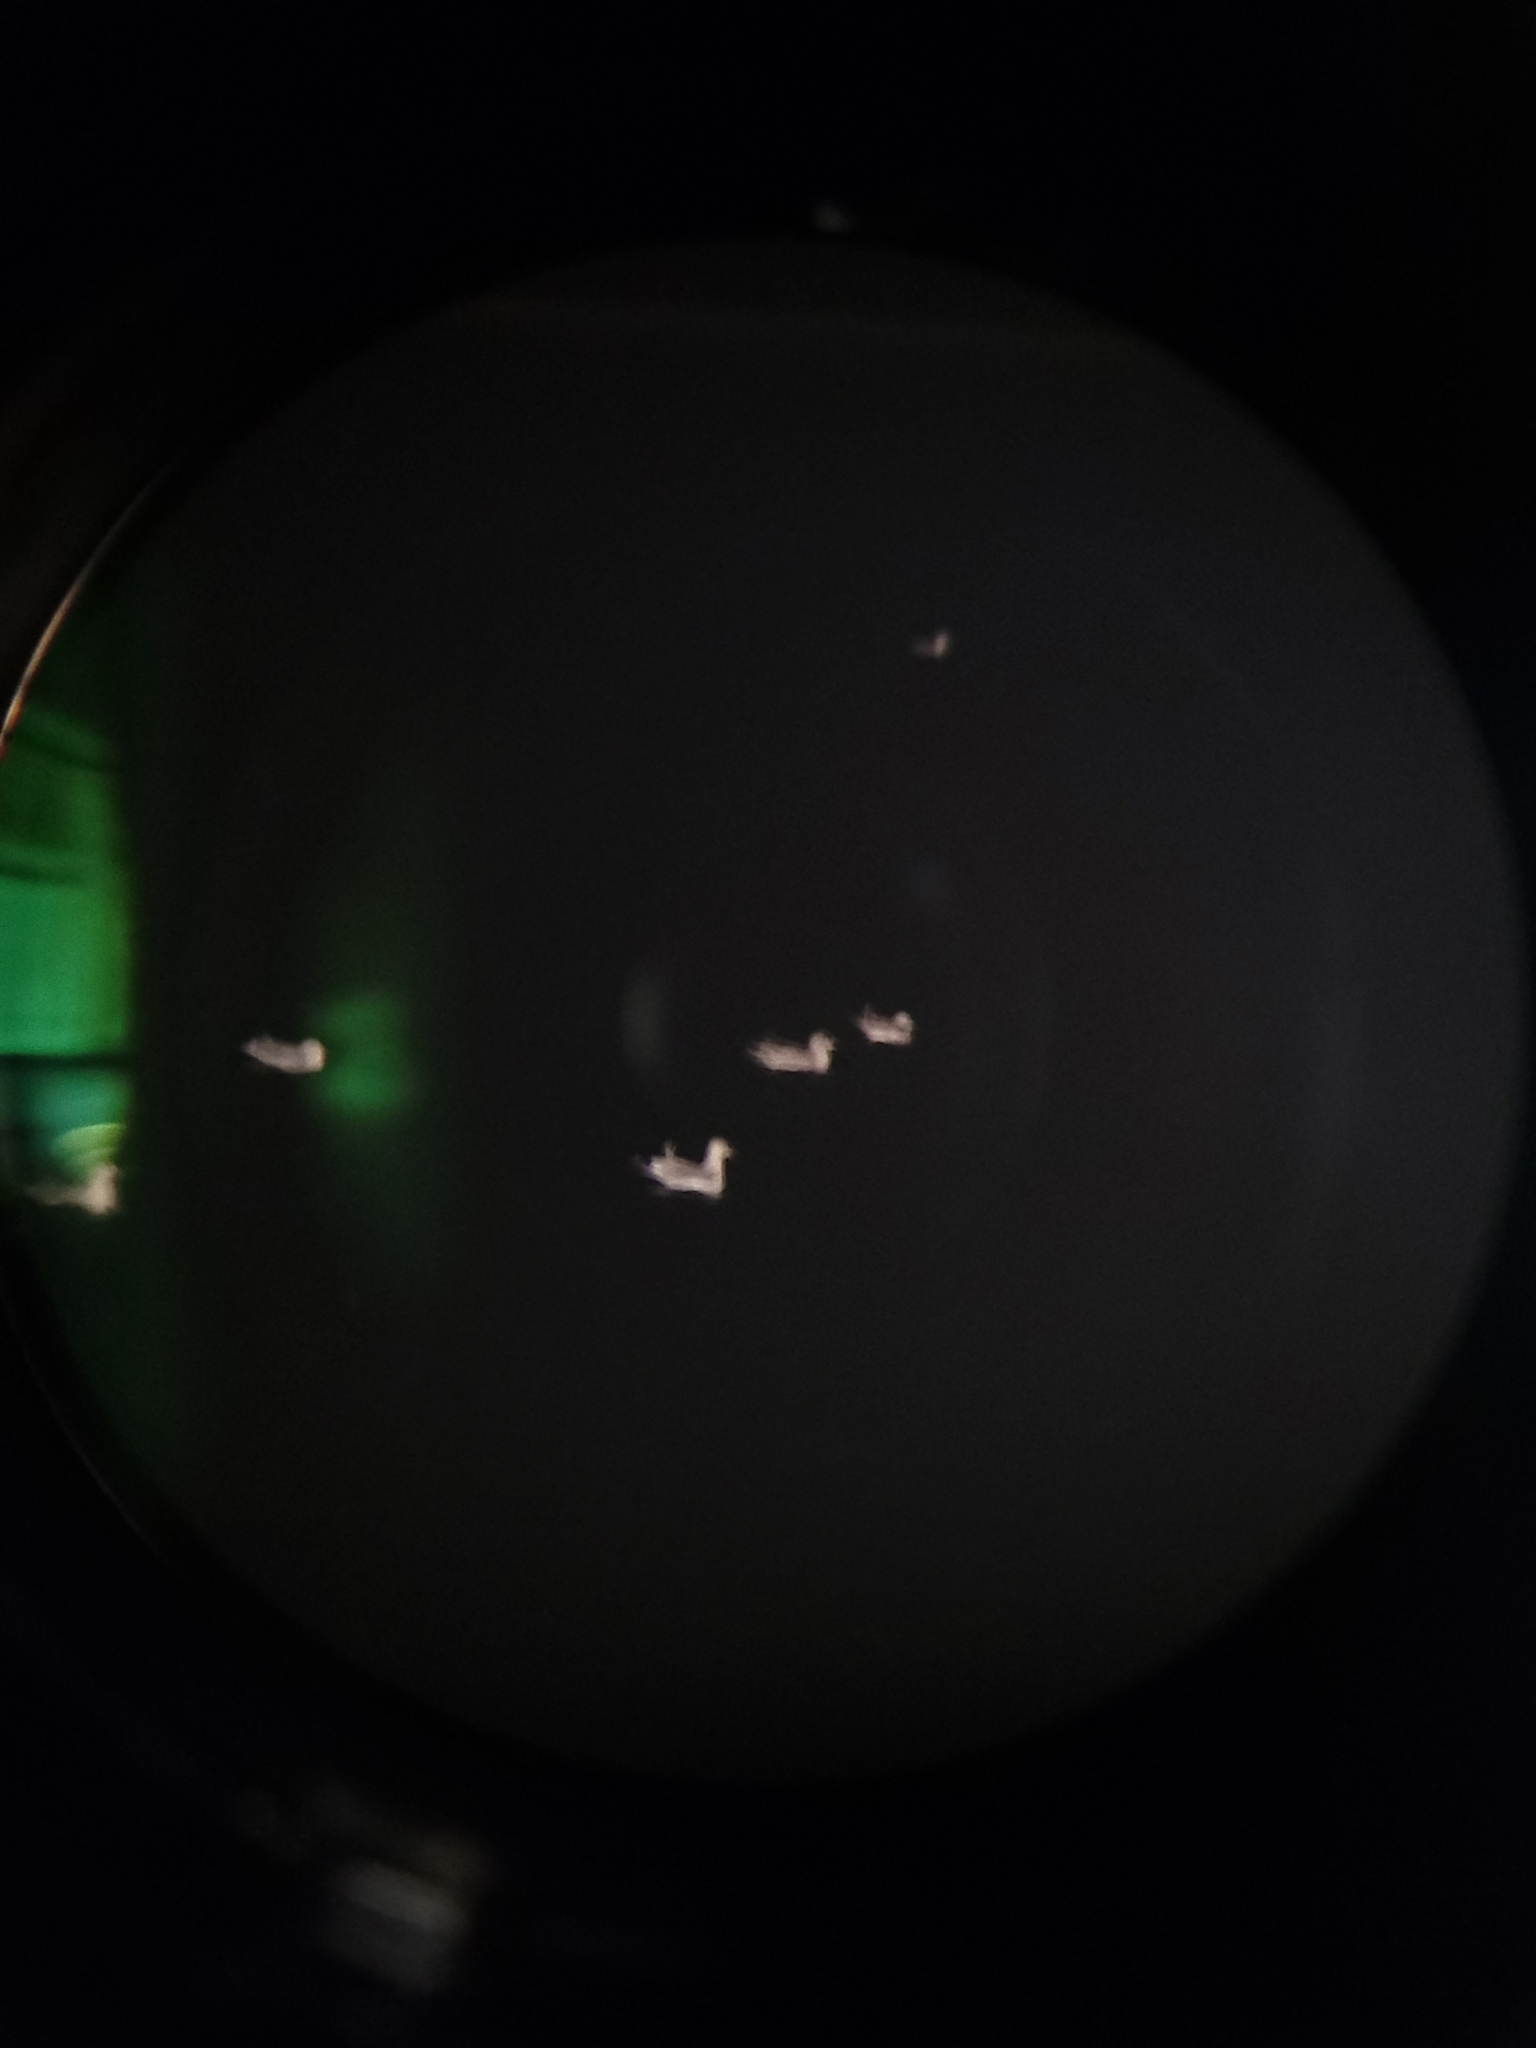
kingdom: Animalia
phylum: Chordata
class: Aves
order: Charadriiformes
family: Laridae
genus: Larus
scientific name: Larus delawarensis
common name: Ring-billed gull
